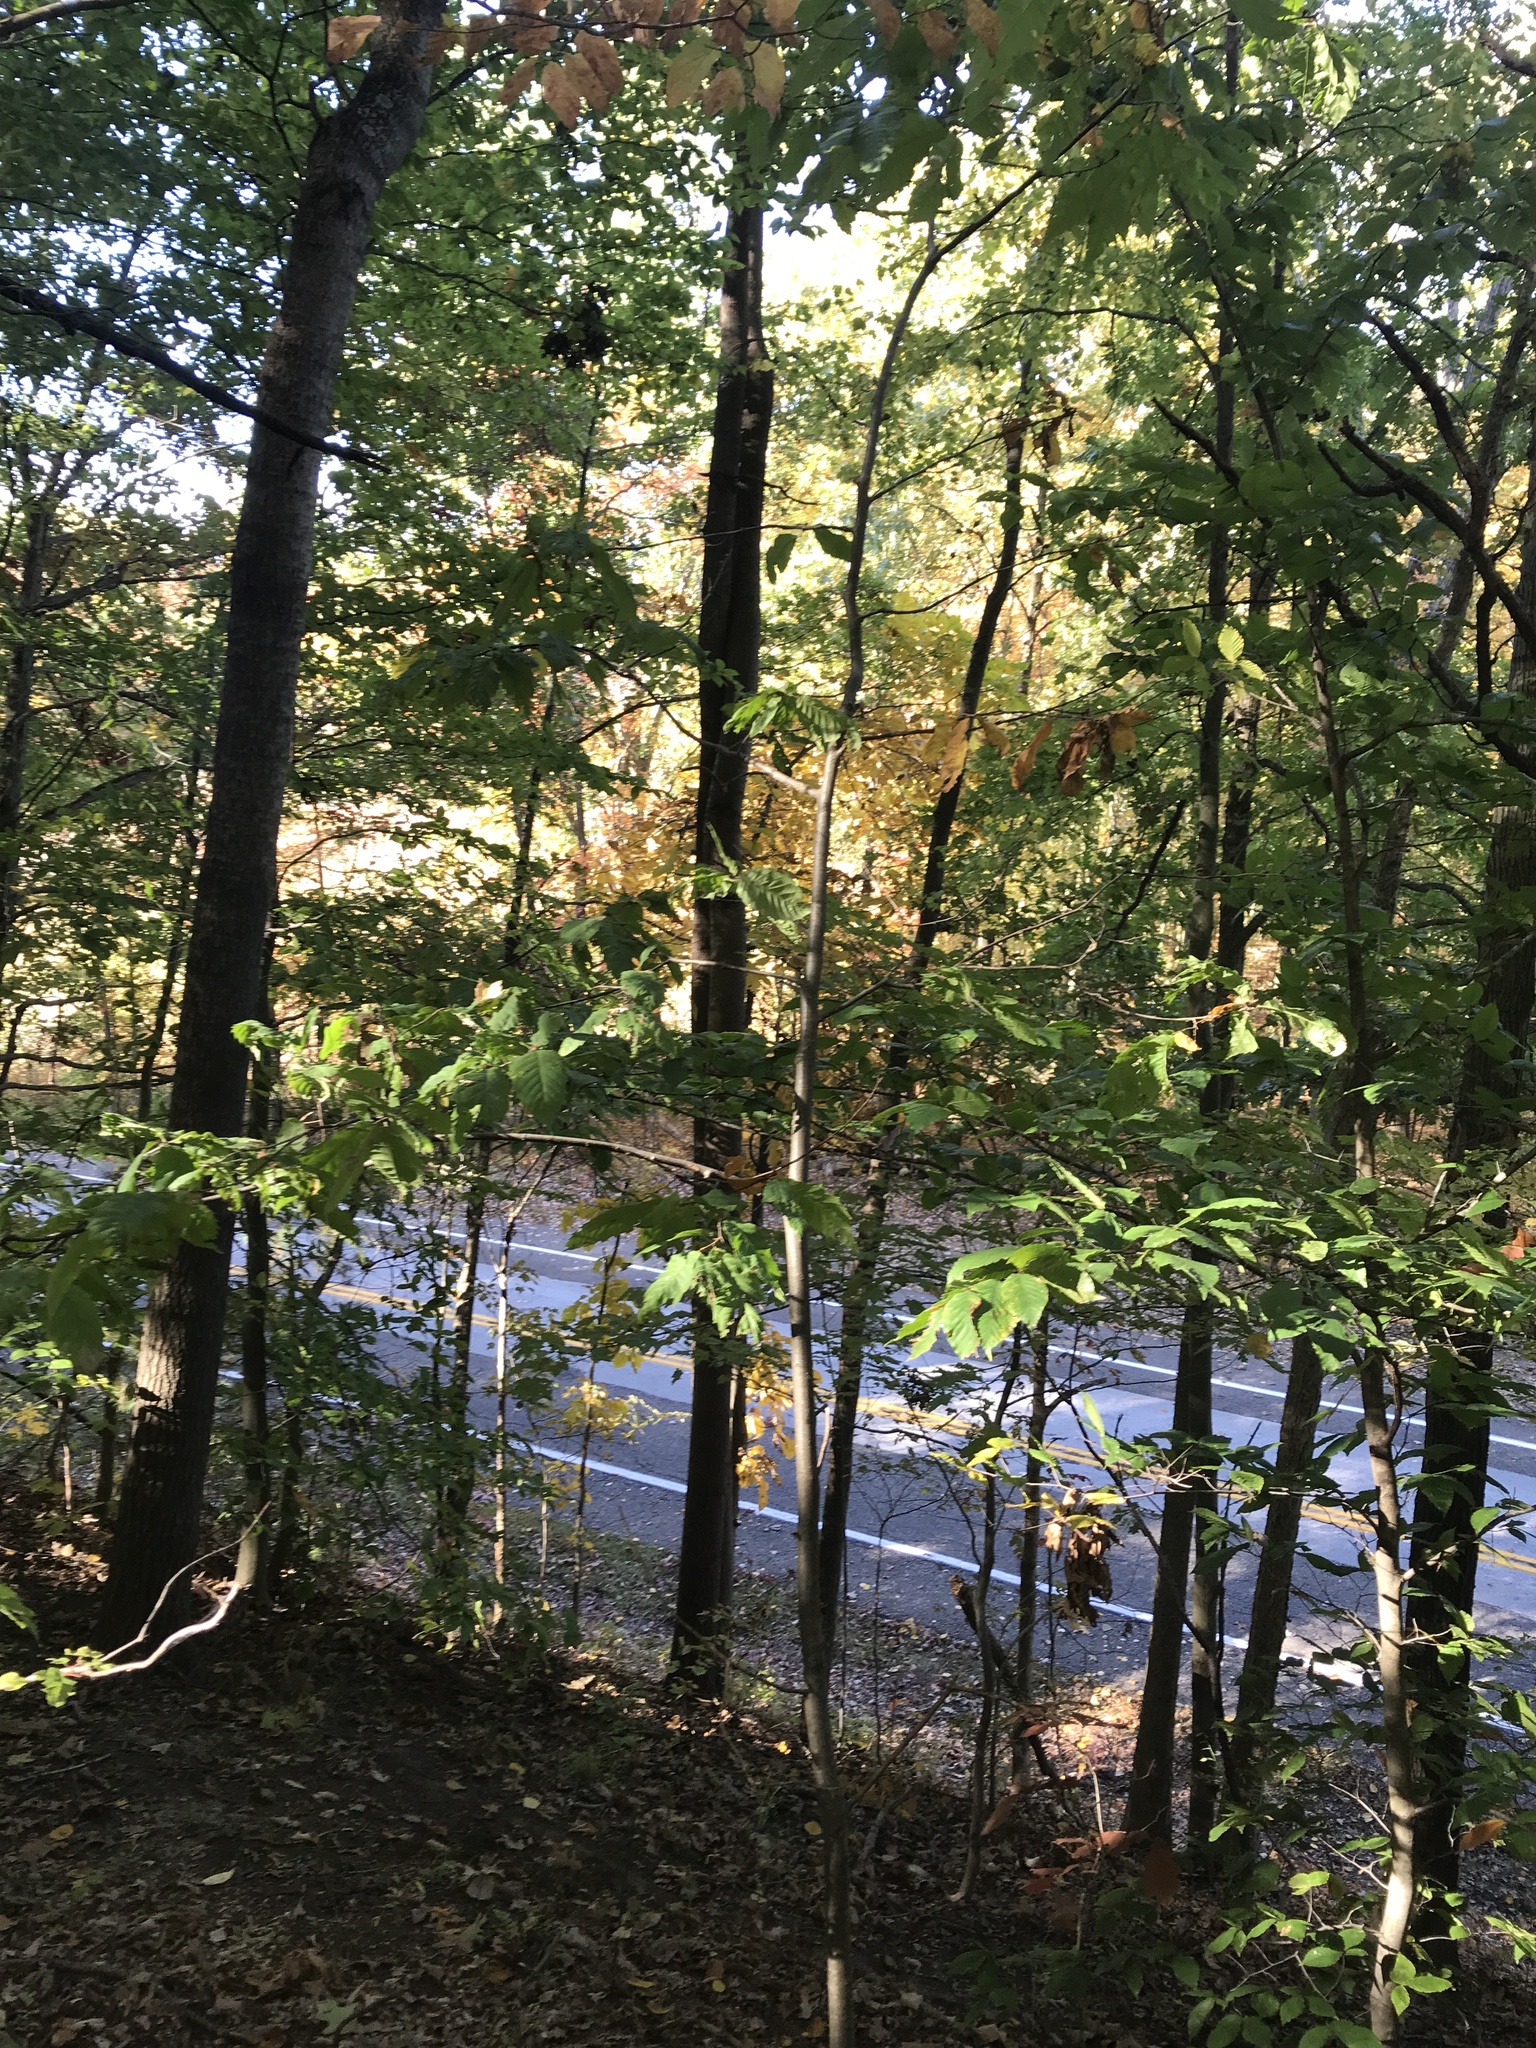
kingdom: Plantae
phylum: Tracheophyta
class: Magnoliopsida
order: Fagales
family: Fagaceae
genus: Castanea
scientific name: Castanea dentata
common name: American chestnut
